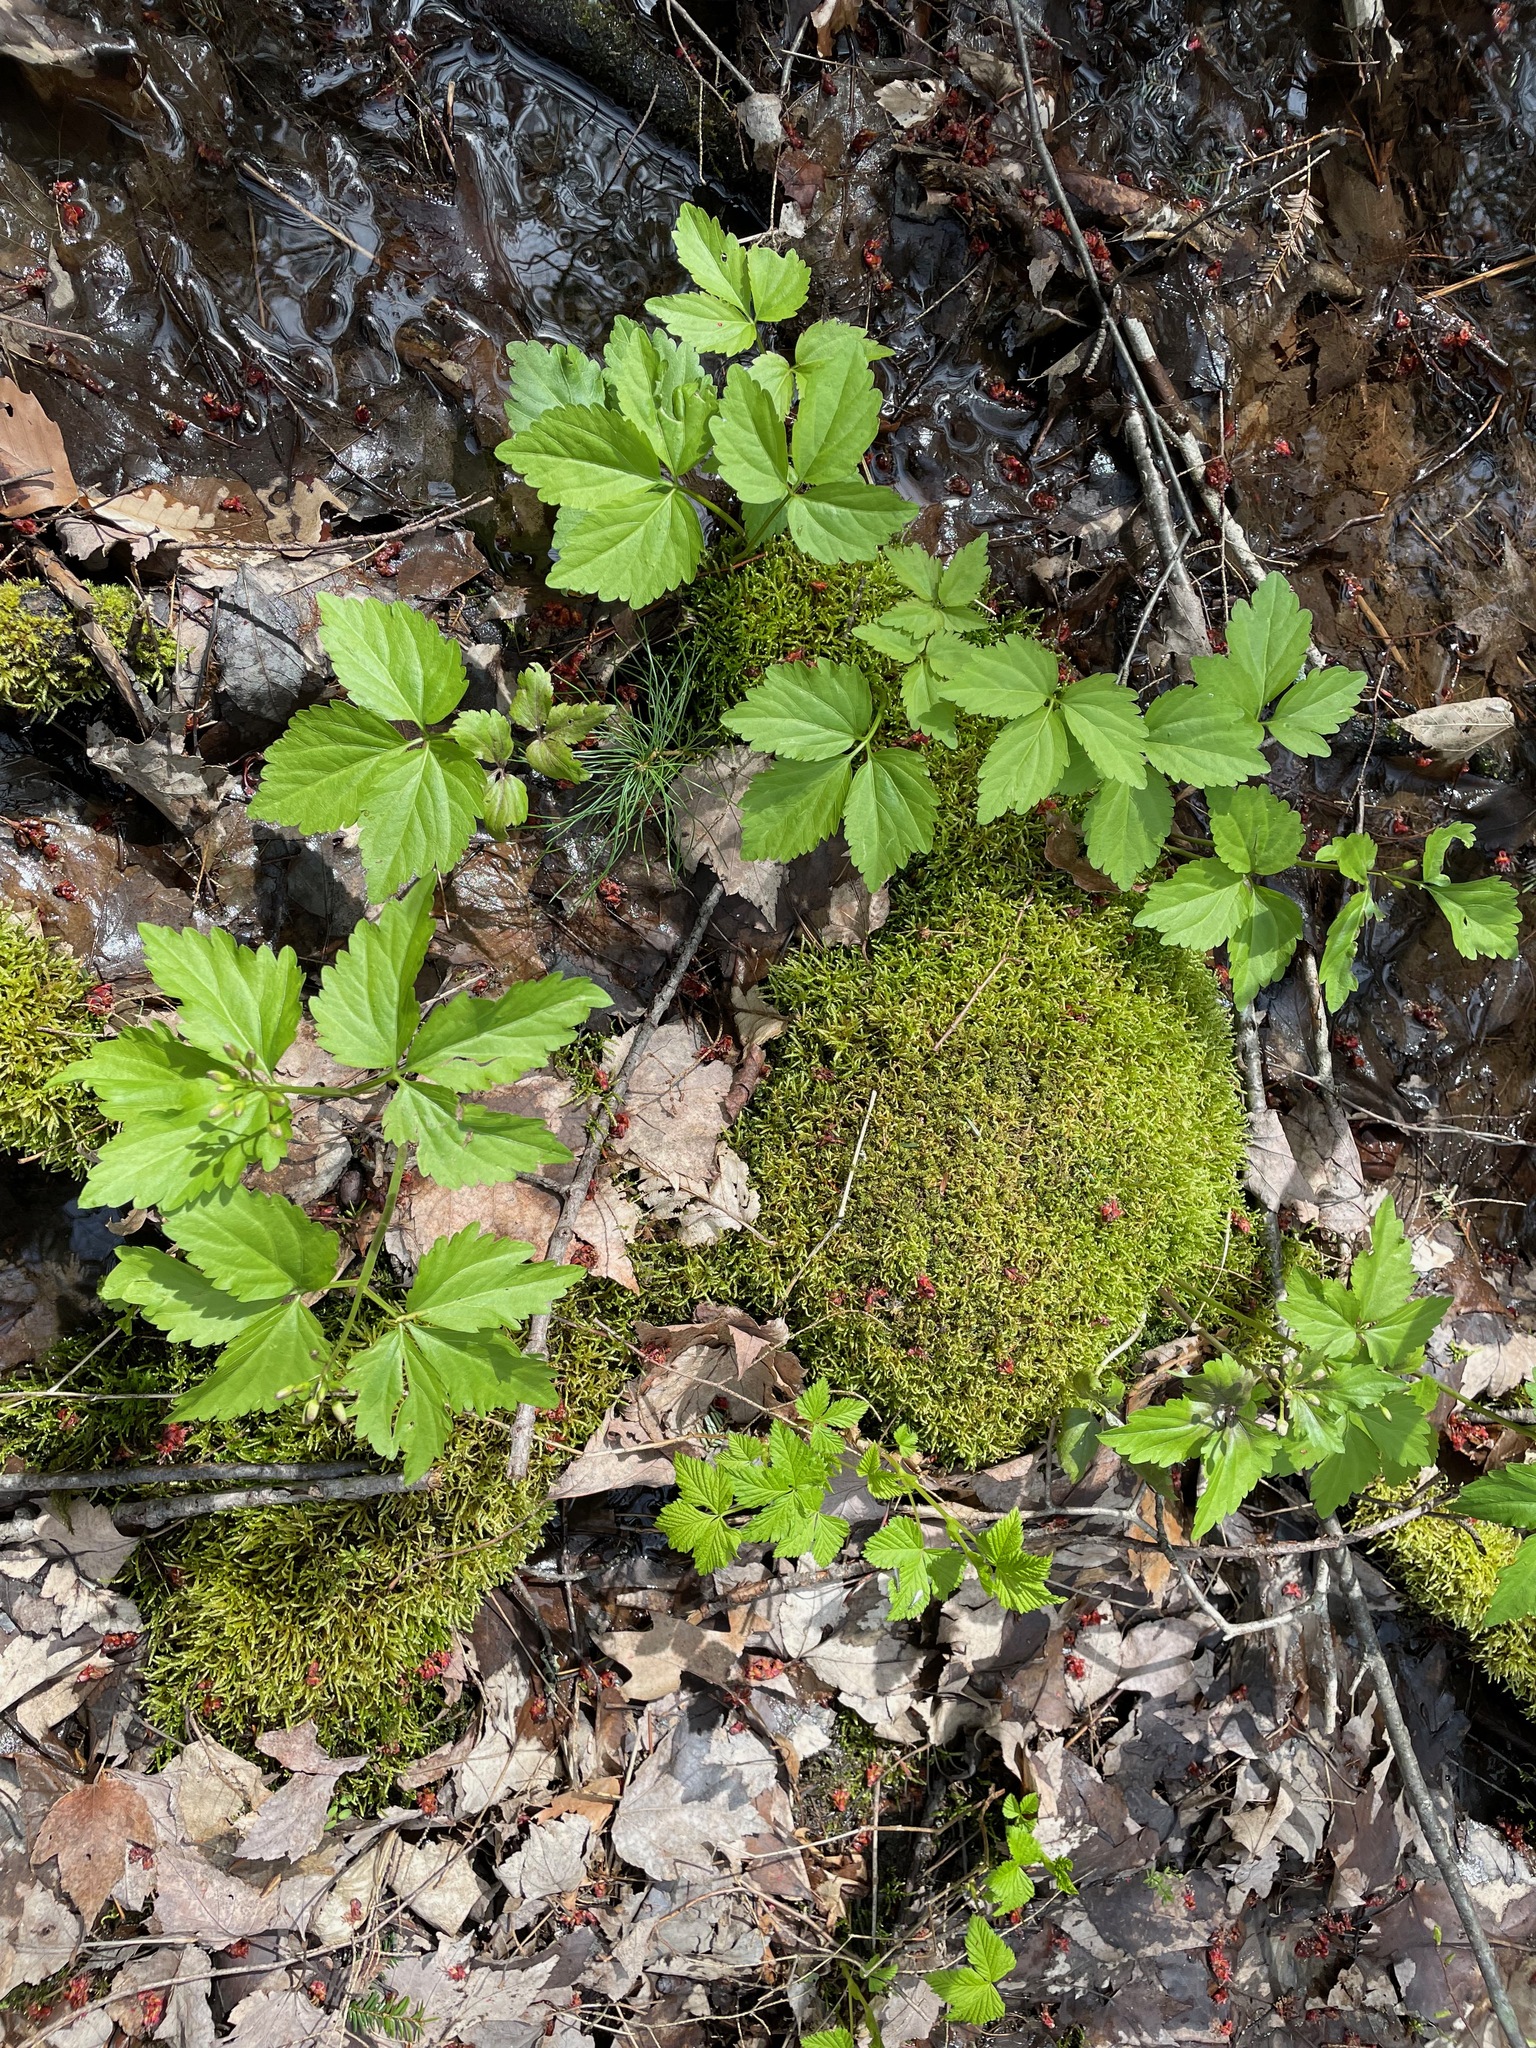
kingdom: Plantae
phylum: Tracheophyta
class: Magnoliopsida
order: Brassicales
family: Brassicaceae
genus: Cardamine
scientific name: Cardamine diphylla
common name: Broad-leaved toothwort
